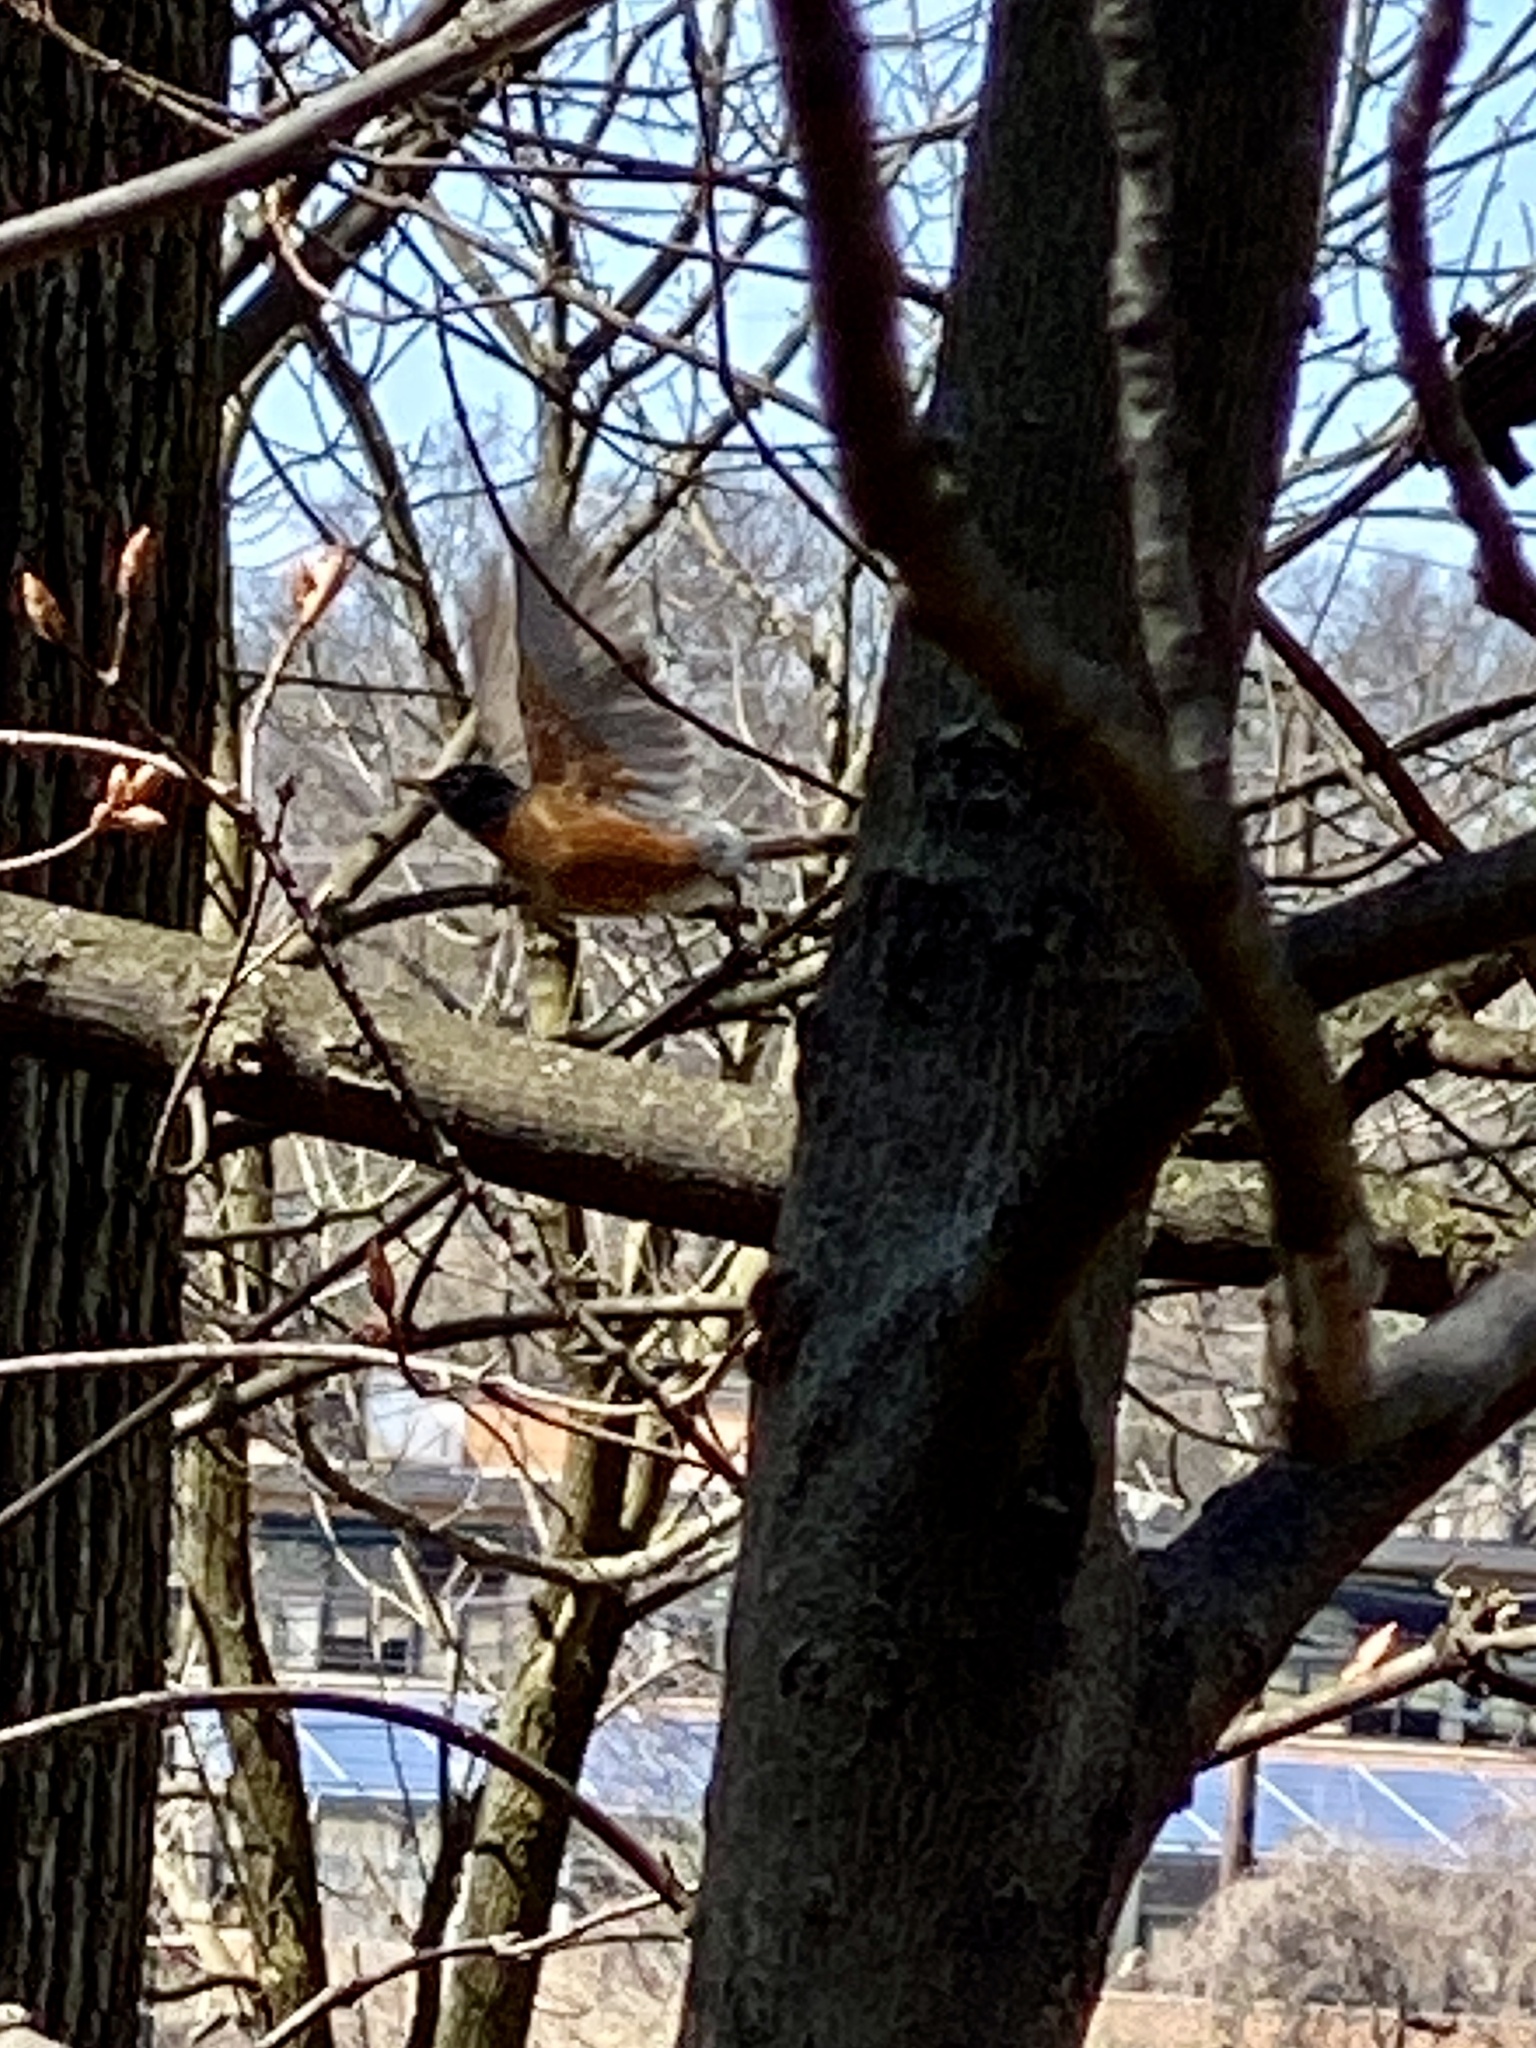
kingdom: Animalia
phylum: Chordata
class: Aves
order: Passeriformes
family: Turdidae
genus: Turdus
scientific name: Turdus migratorius
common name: American robin
